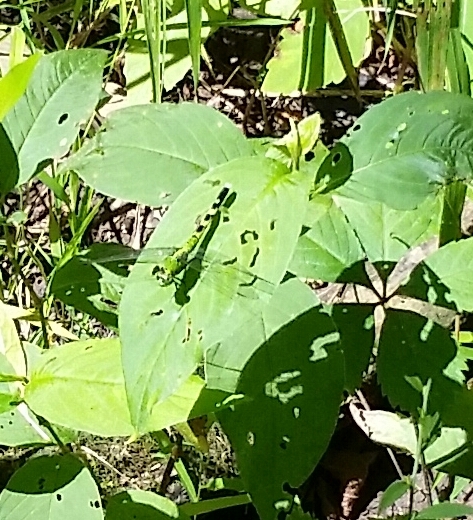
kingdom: Animalia
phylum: Arthropoda
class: Insecta
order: Odonata
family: Libellulidae
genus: Erythemis
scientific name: Erythemis simplicicollis
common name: Eastern pondhawk
